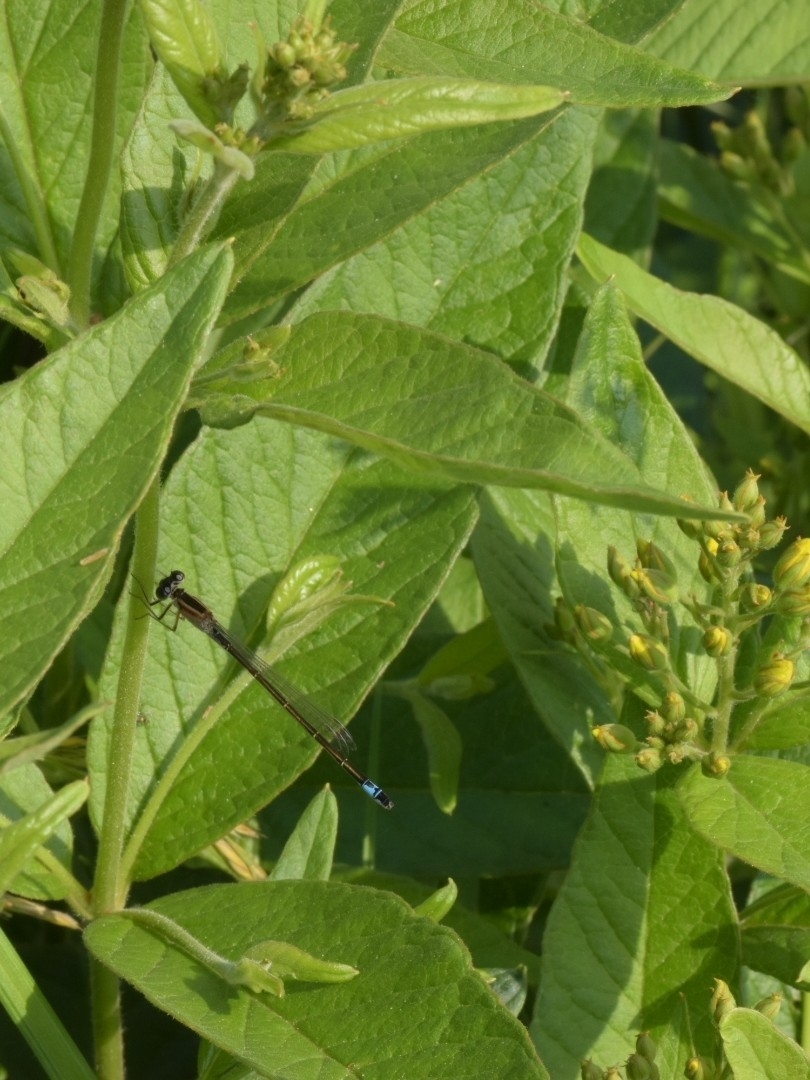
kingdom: Animalia
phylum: Arthropoda
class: Insecta
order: Odonata
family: Coenagrionidae
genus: Ischnura
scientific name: Ischnura elegans
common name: Blue-tailed damselfly
